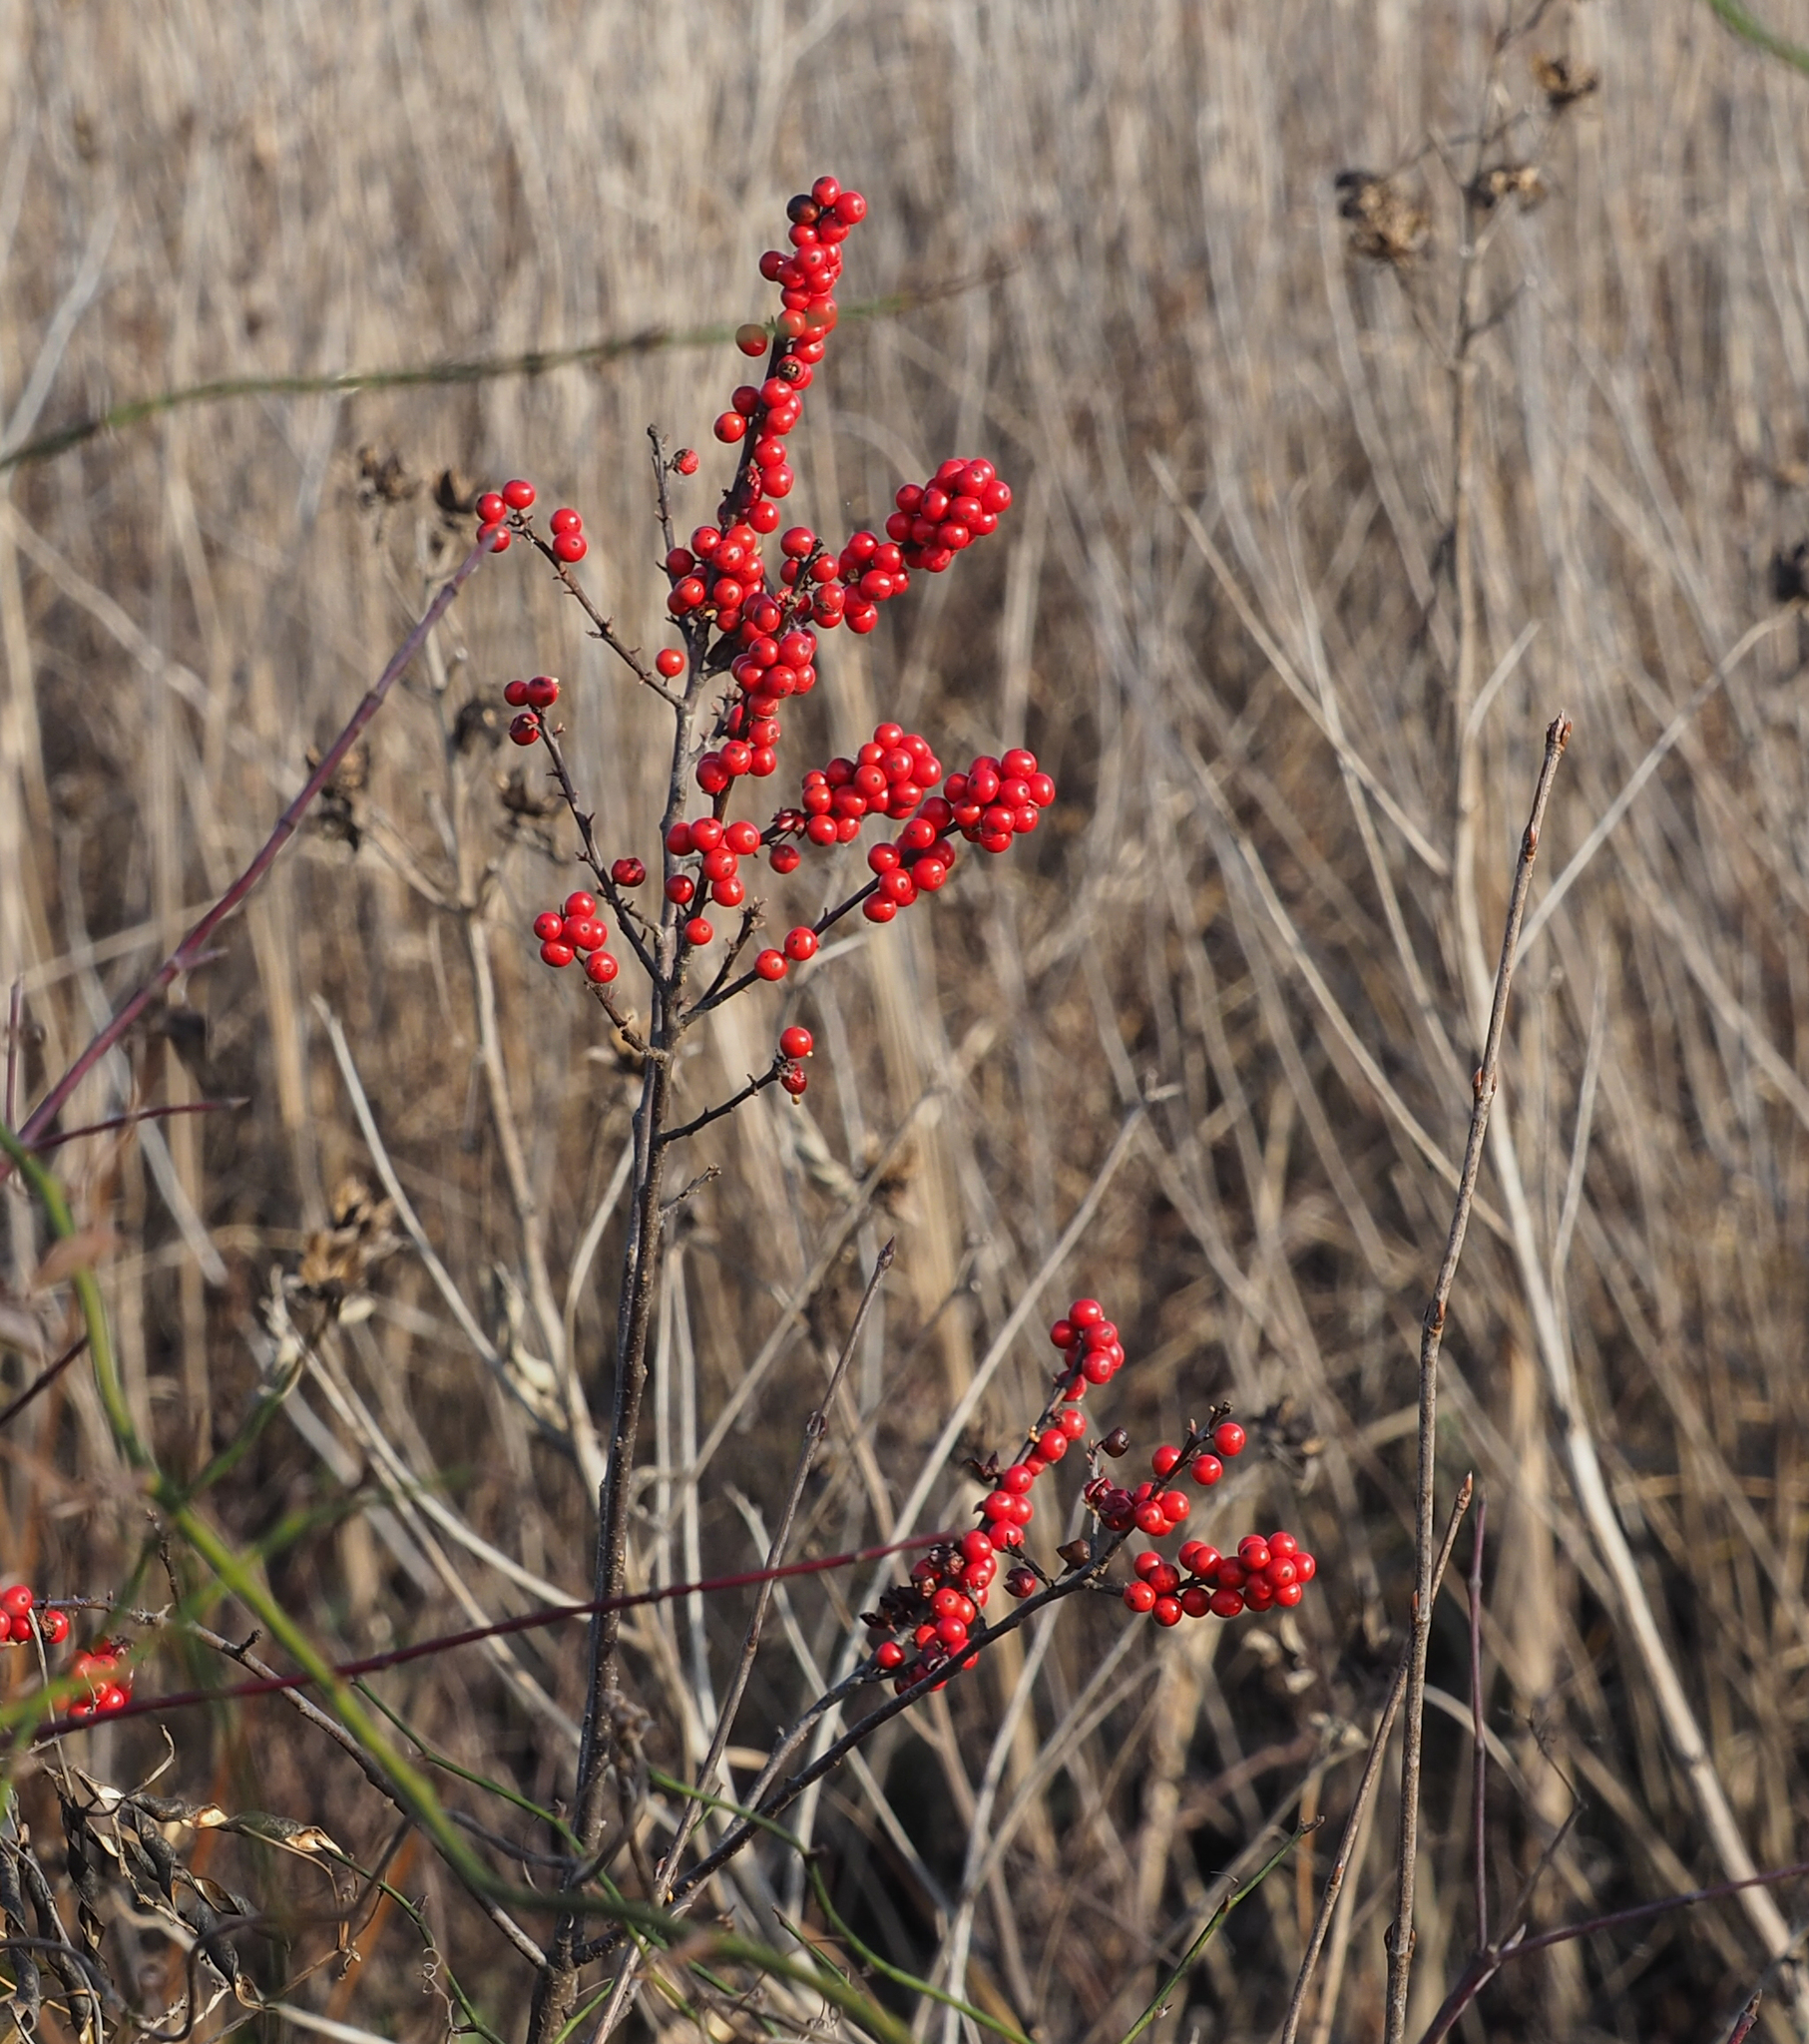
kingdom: Plantae
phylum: Tracheophyta
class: Magnoliopsida
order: Aquifoliales
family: Aquifoliaceae
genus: Ilex
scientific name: Ilex verticillata
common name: Virginia winterberry
